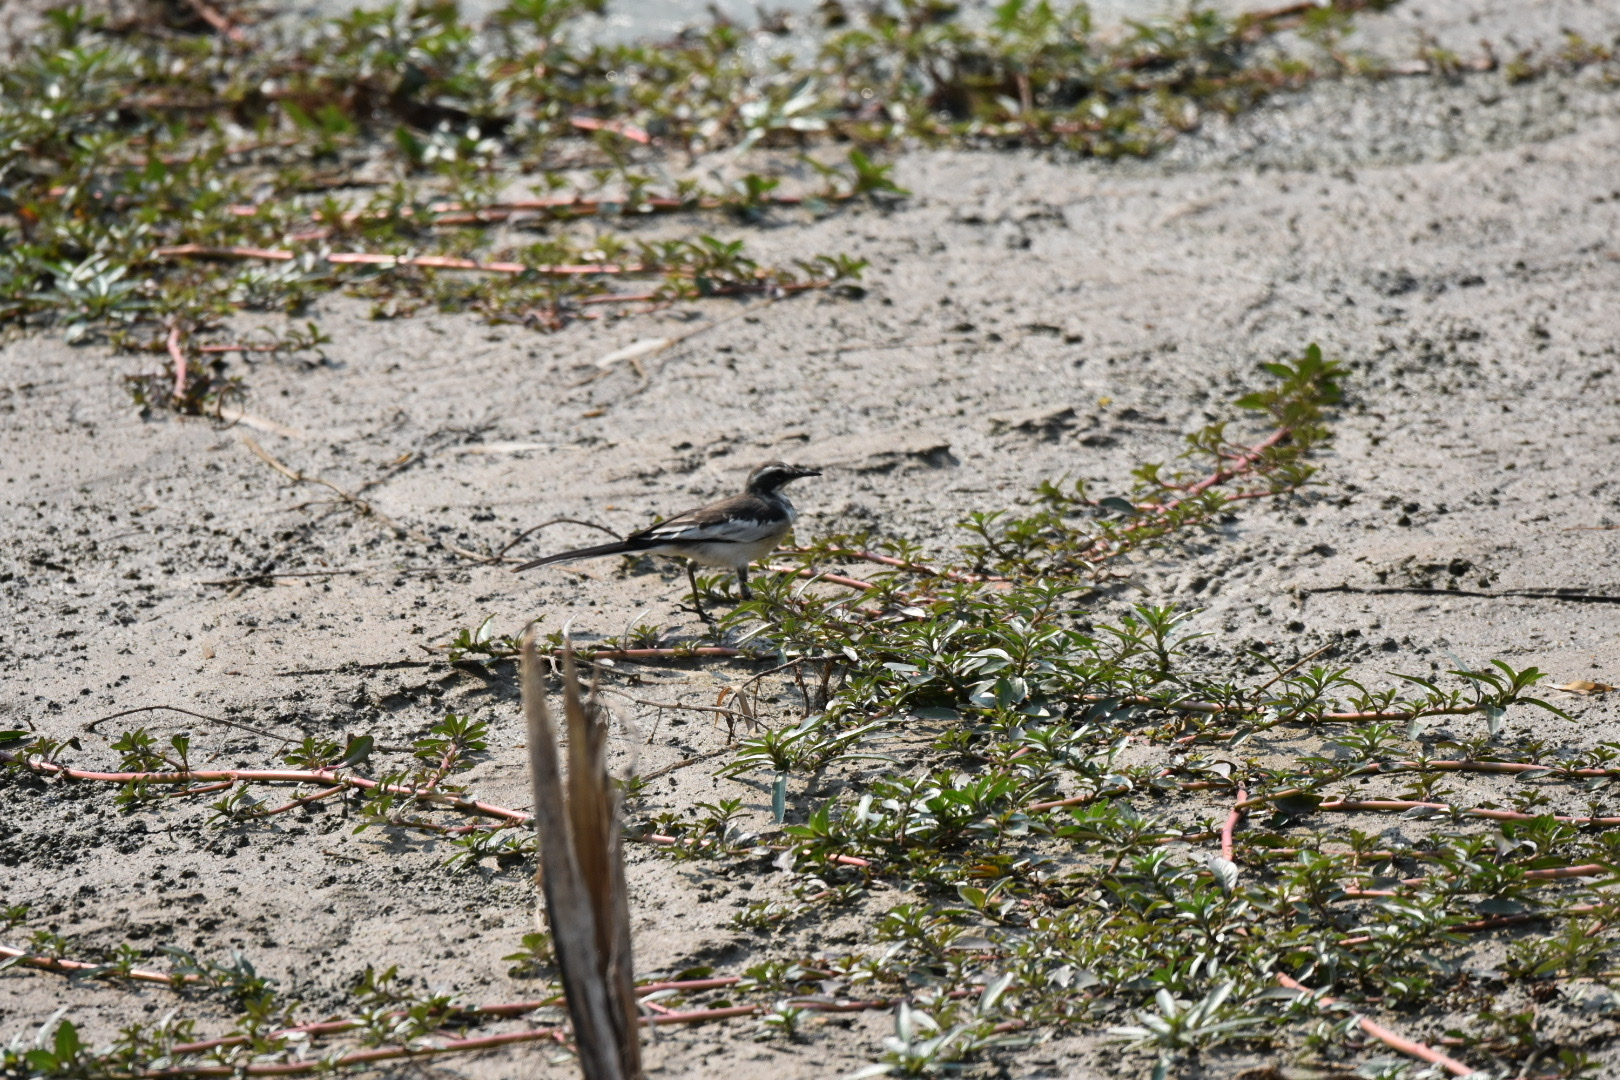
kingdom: Animalia
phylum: Chordata
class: Aves
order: Passeriformes
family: Motacillidae
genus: Motacilla
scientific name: Motacilla aguimp
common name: African pied wagtail
